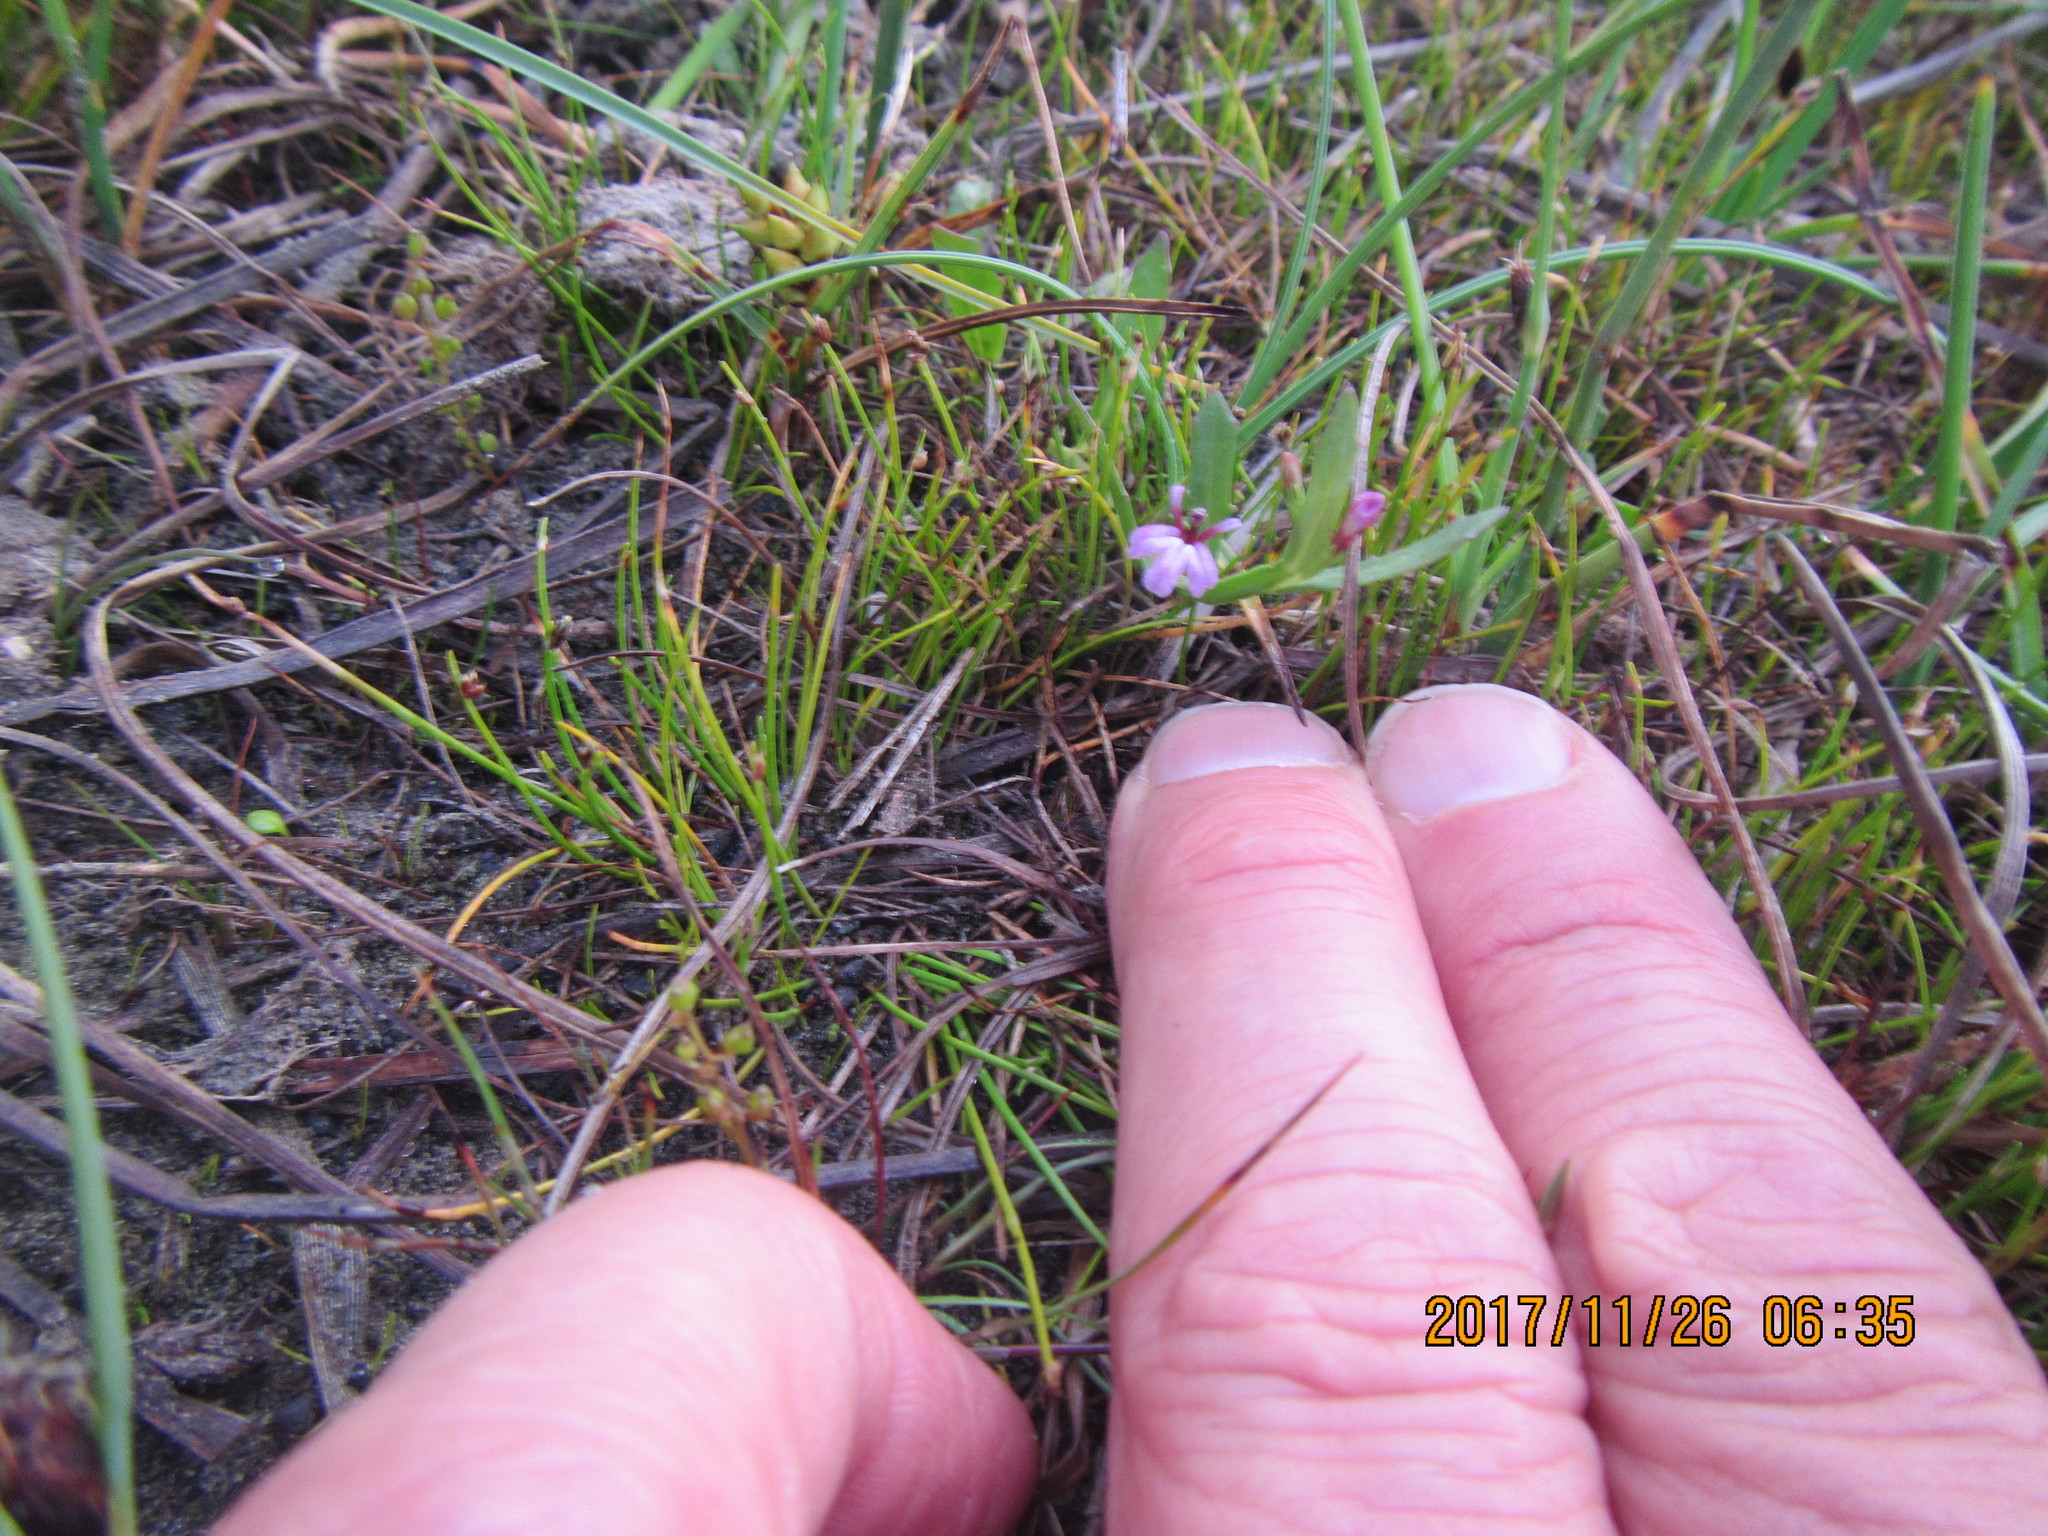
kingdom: Plantae
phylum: Tracheophyta
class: Magnoliopsida
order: Asterales
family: Campanulaceae
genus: Lobelia
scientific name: Lobelia anceps
